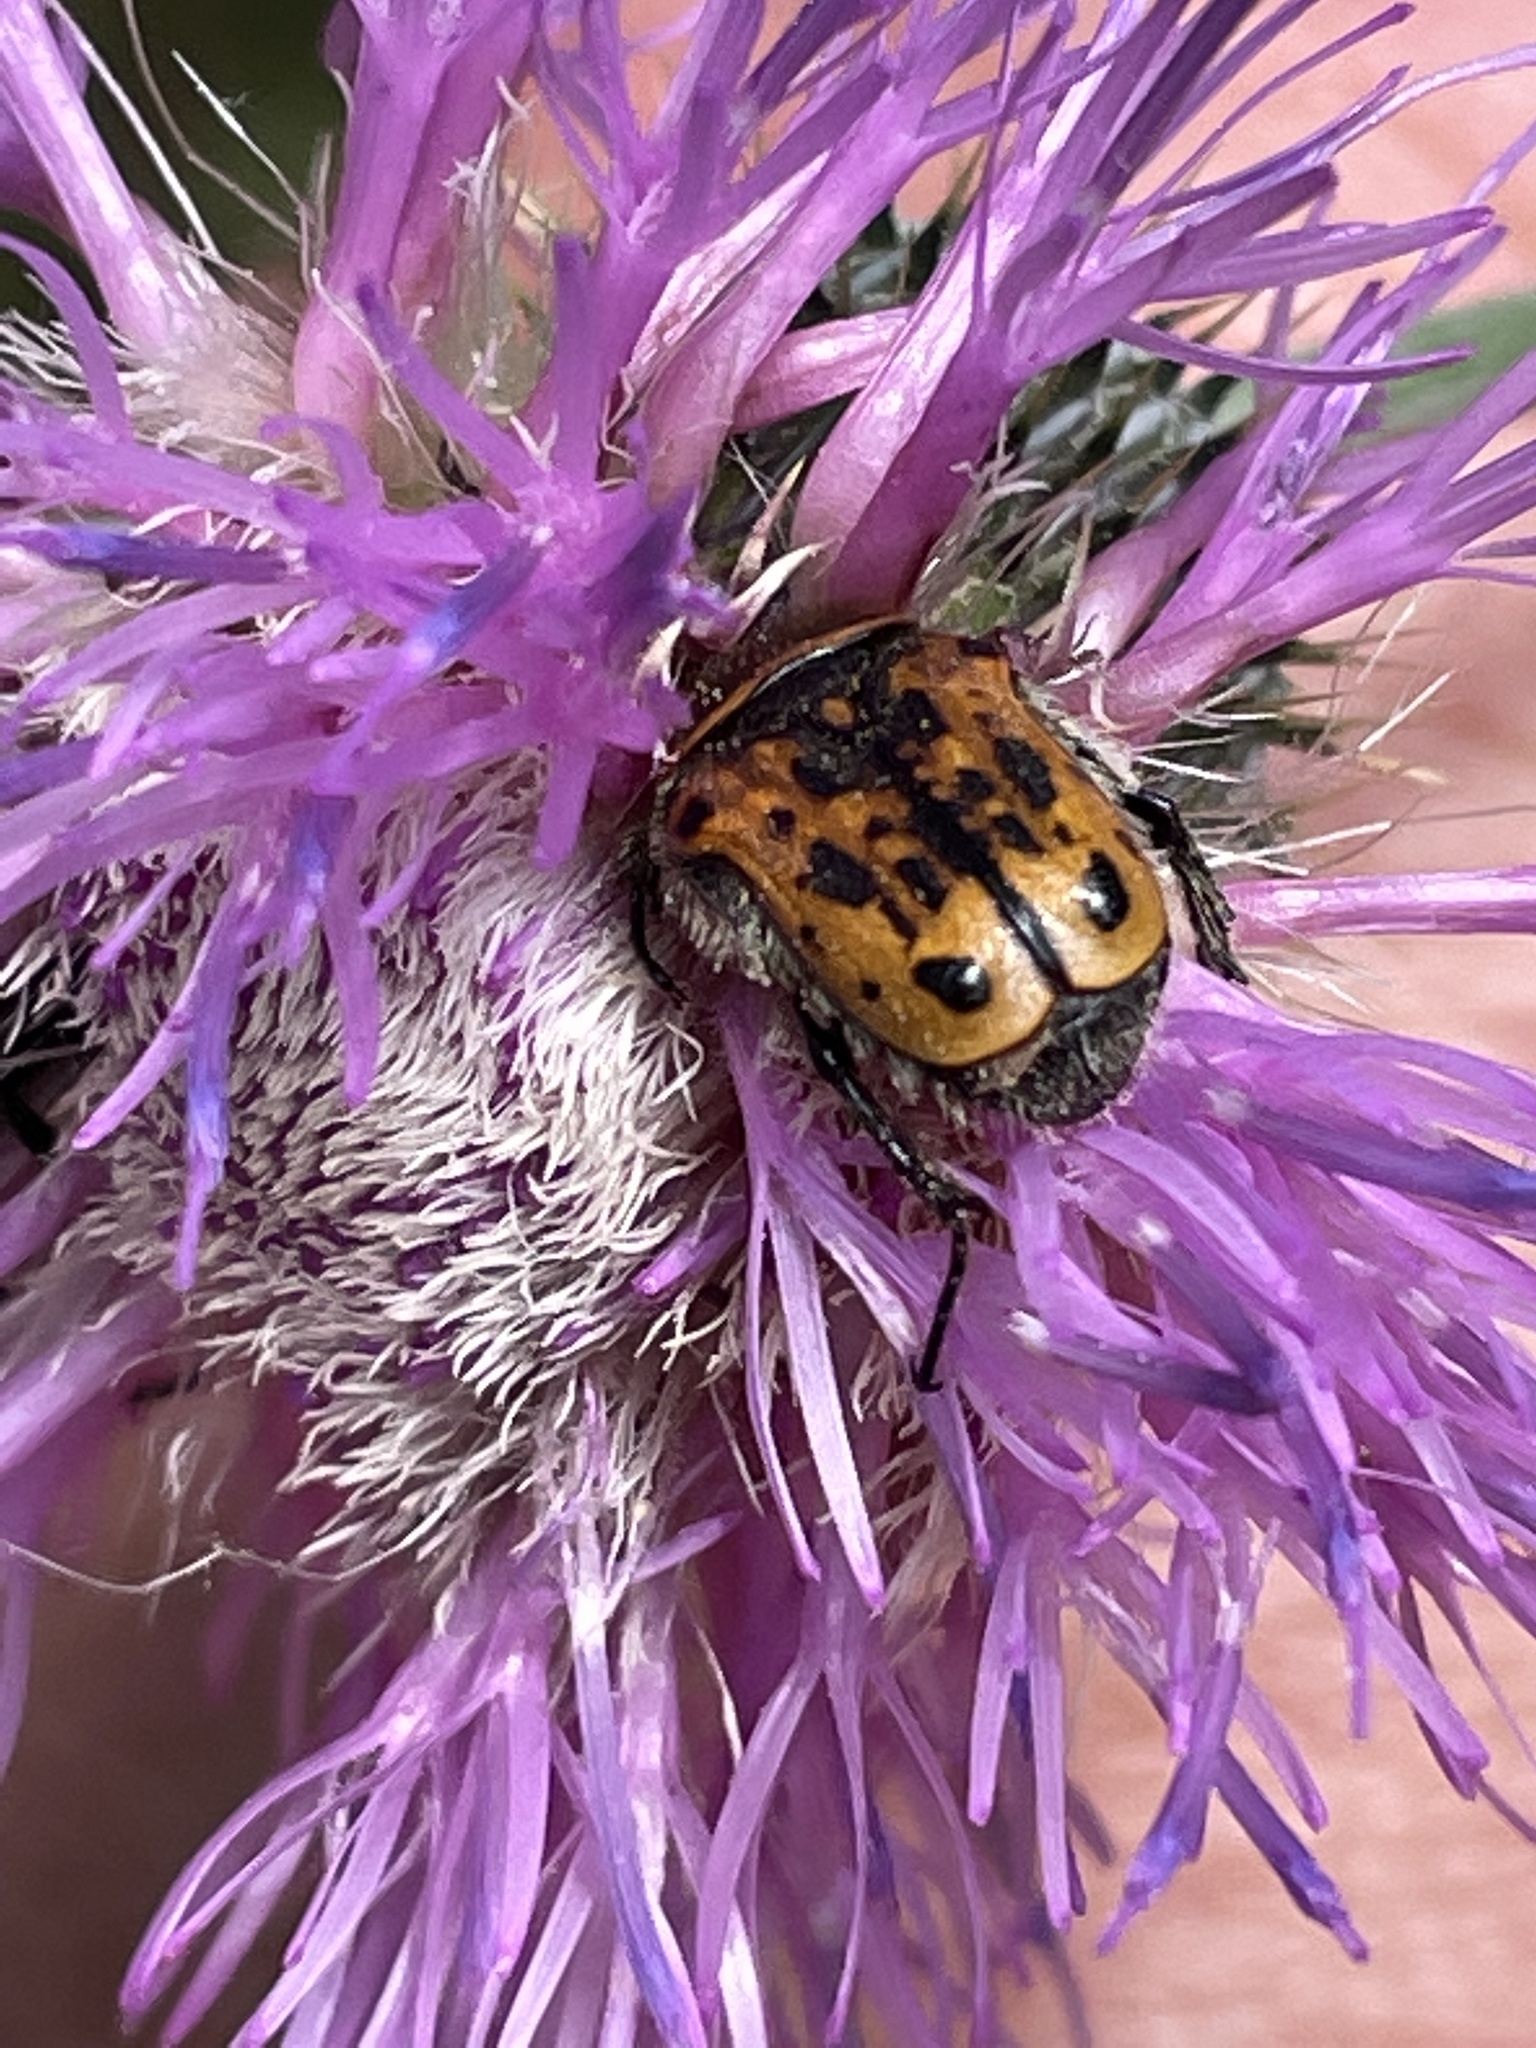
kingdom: Animalia
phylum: Arthropoda
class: Insecta
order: Coleoptera
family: Scarabaeidae
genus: Euphoria
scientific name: Euphoria kernii
